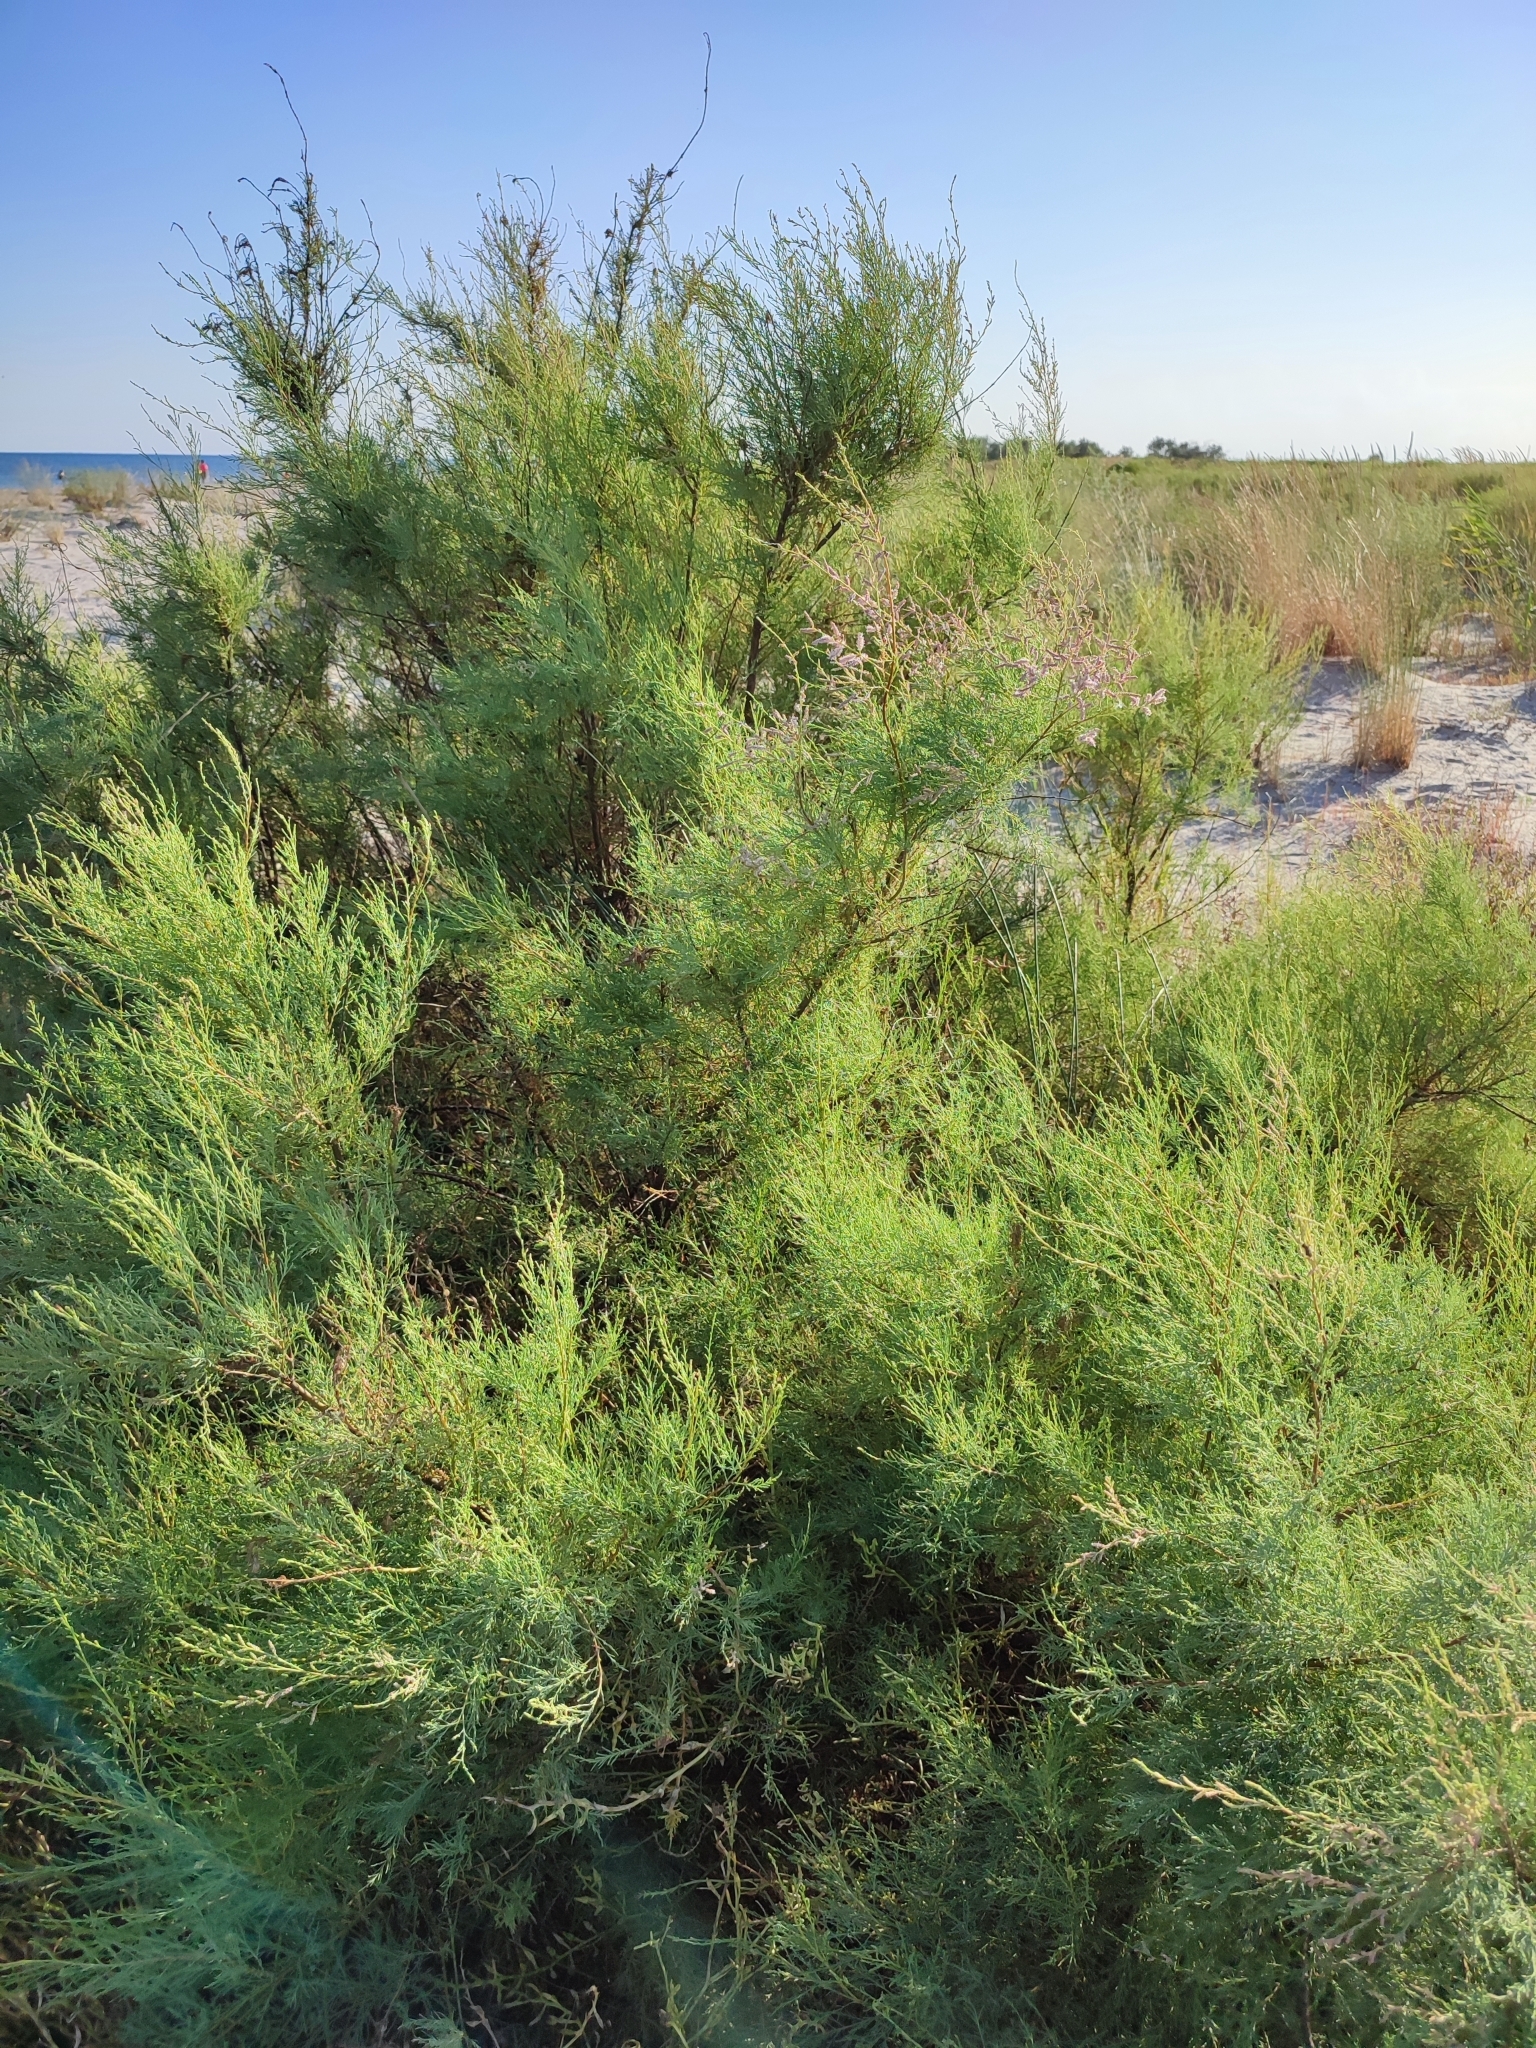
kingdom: Plantae
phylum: Tracheophyta
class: Magnoliopsida
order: Caryophyllales
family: Tamaricaceae
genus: Tamarix
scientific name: Tamarix ramosissima
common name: Pink tamarisk
